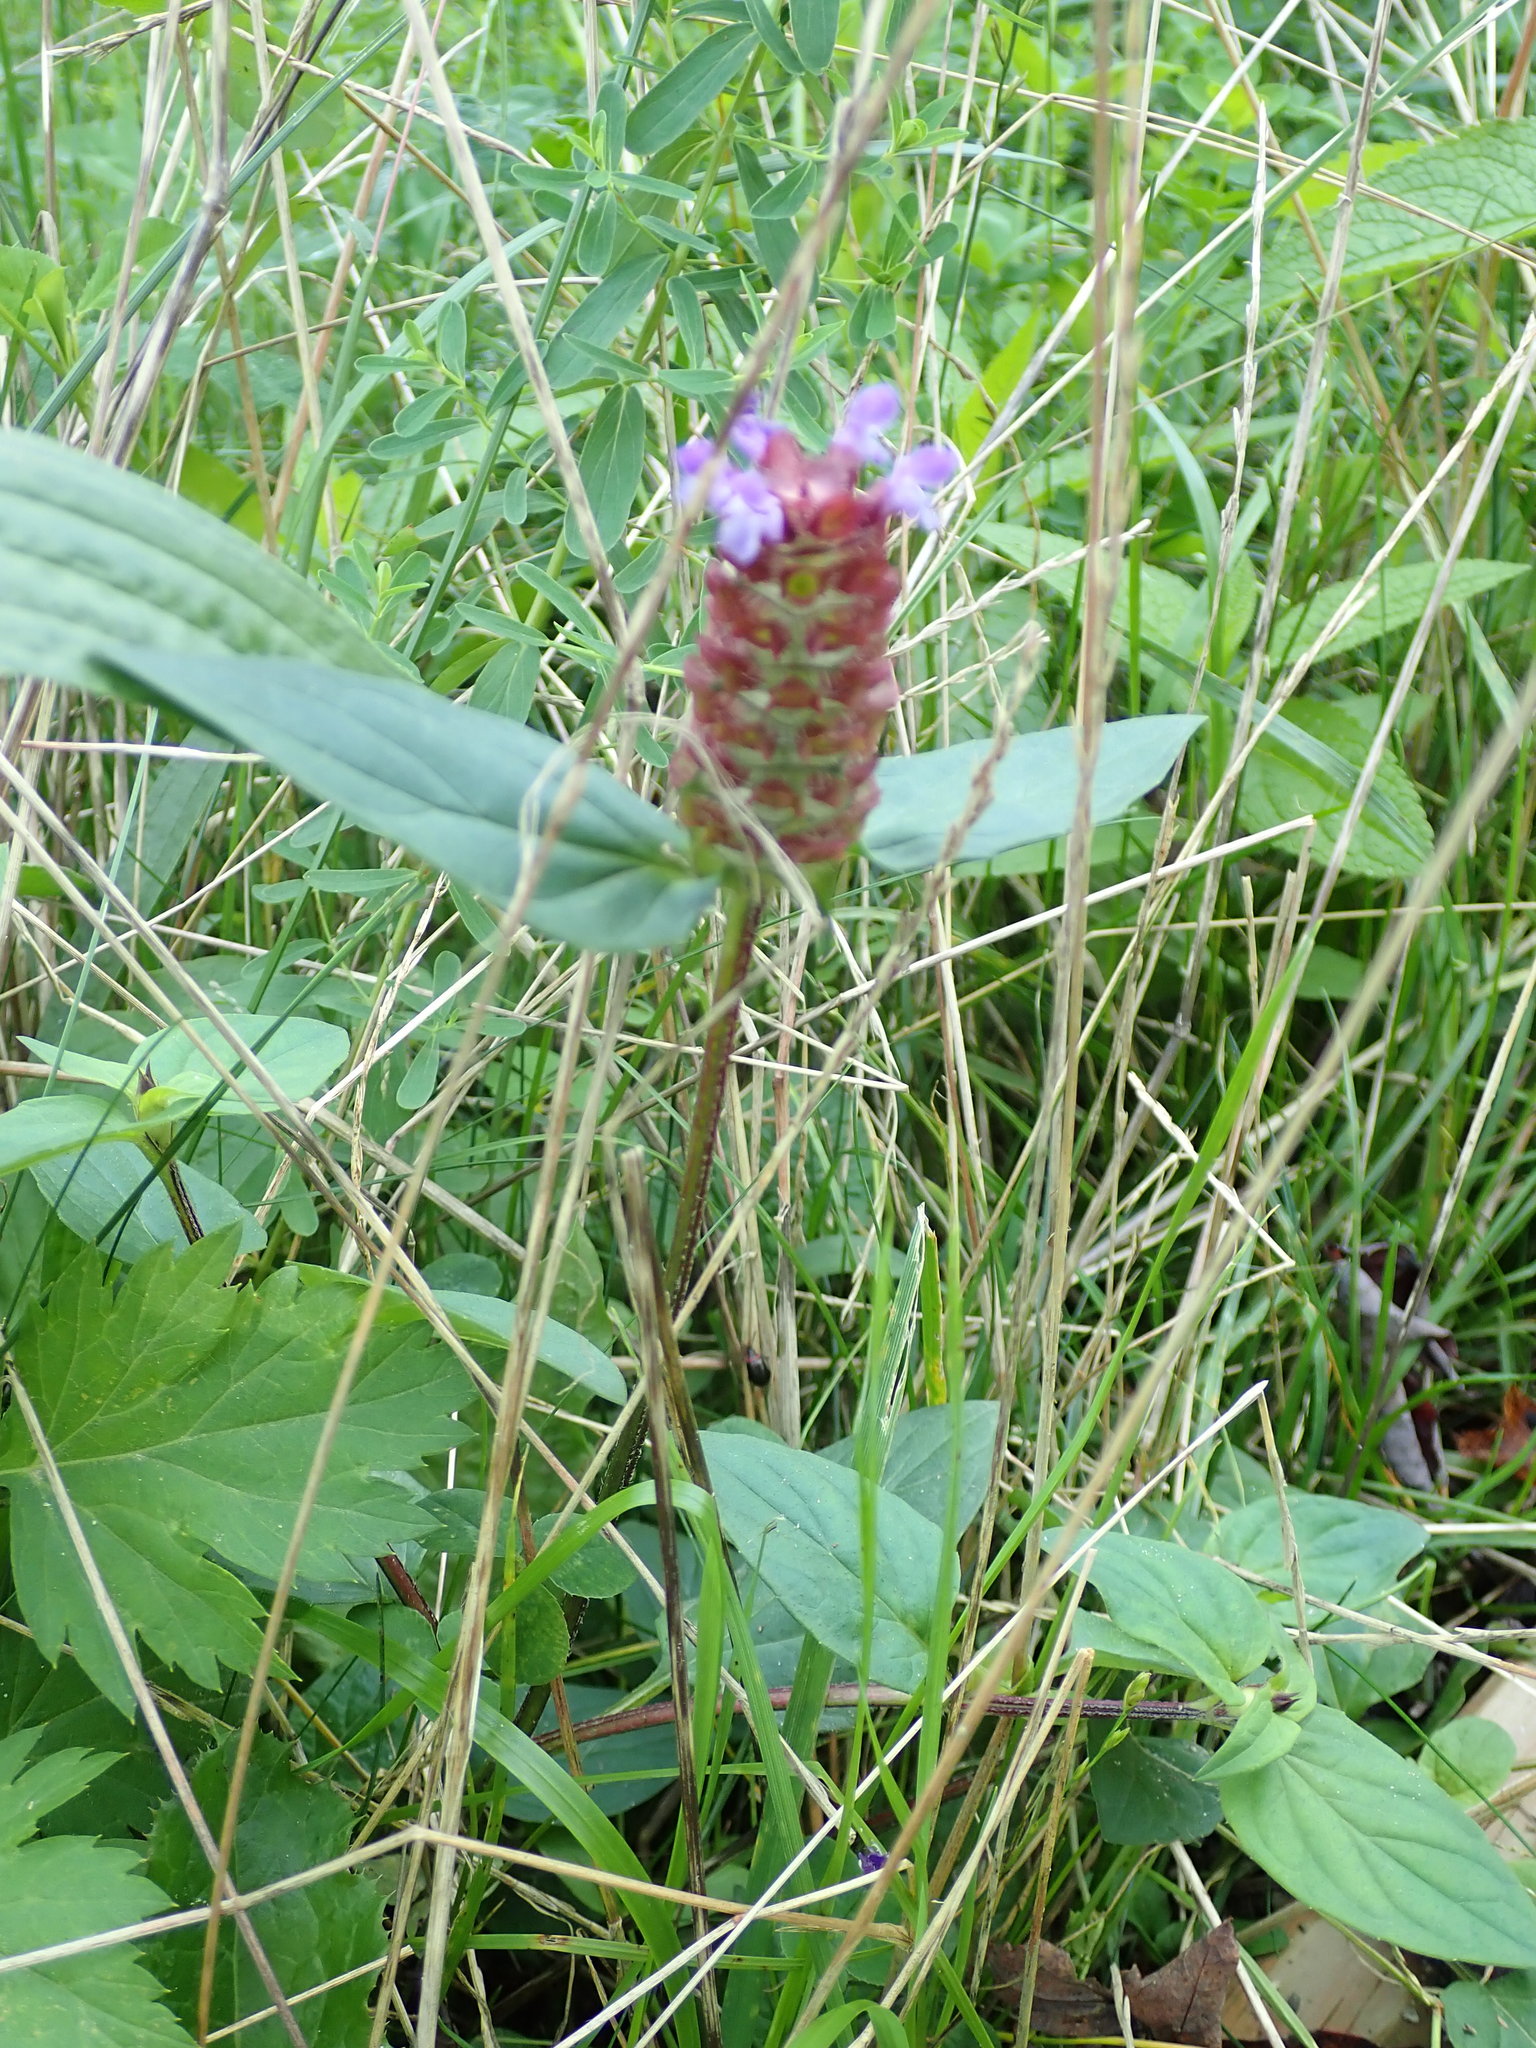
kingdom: Plantae
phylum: Tracheophyta
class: Magnoliopsida
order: Lamiales
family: Lamiaceae
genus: Prunella
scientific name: Prunella vulgaris
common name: Heal-all
